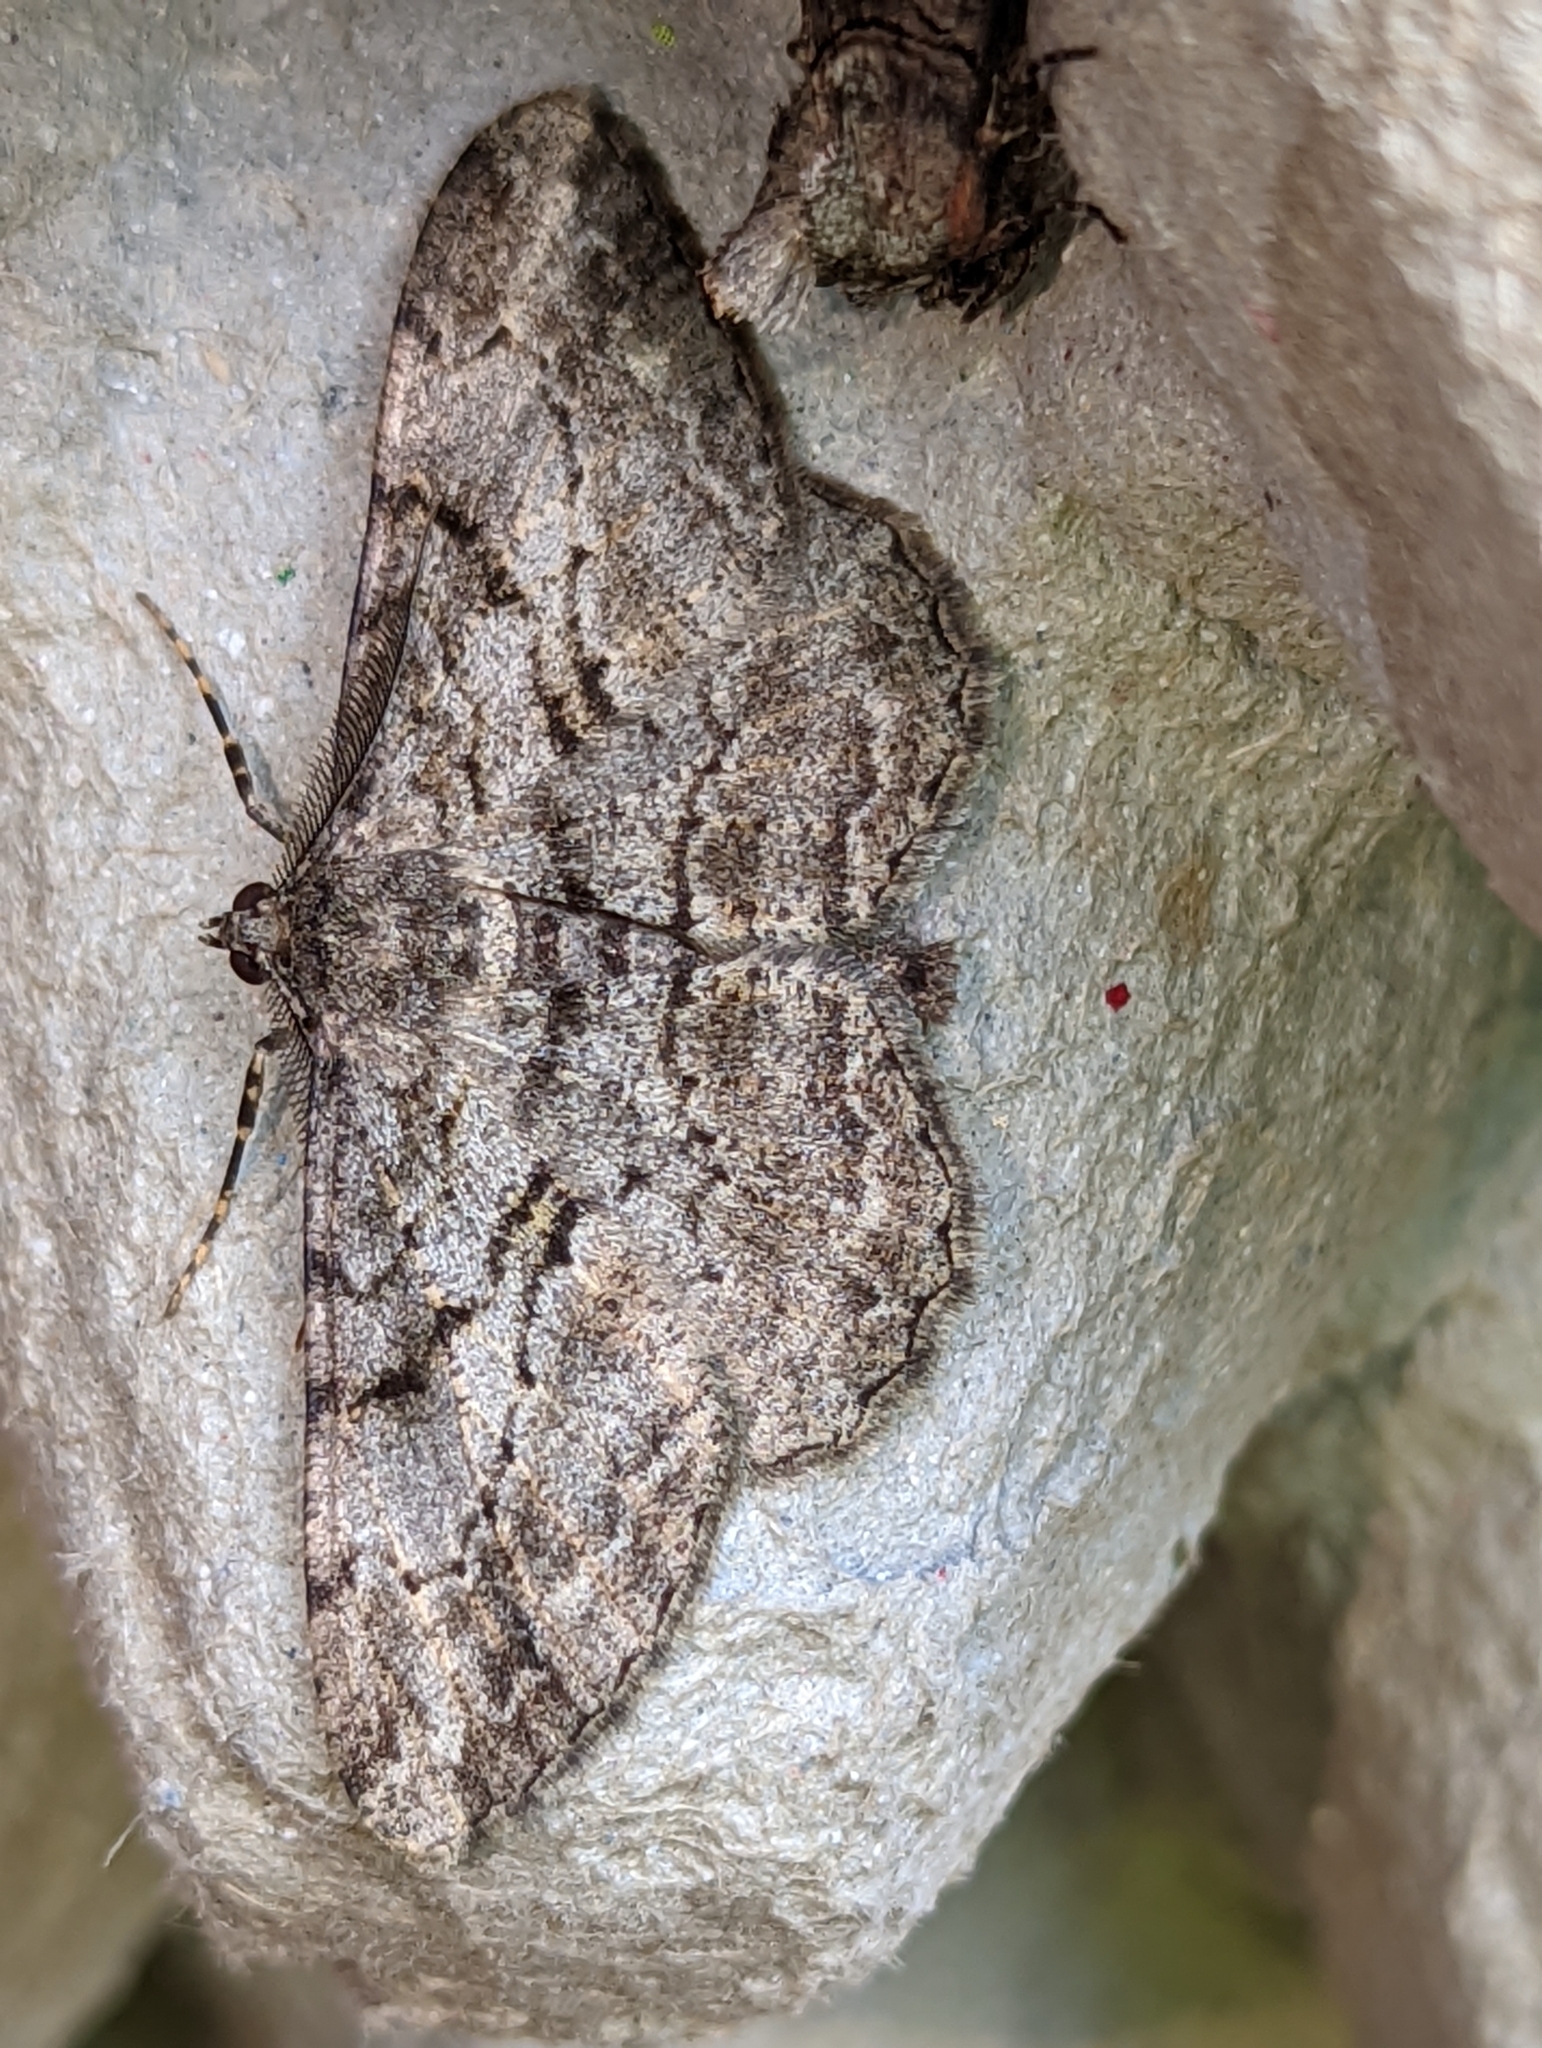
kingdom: Animalia
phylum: Arthropoda
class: Insecta
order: Lepidoptera
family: Geometridae
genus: Peribatodes
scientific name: Peribatodes rhomboidaria
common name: Willow beauty
